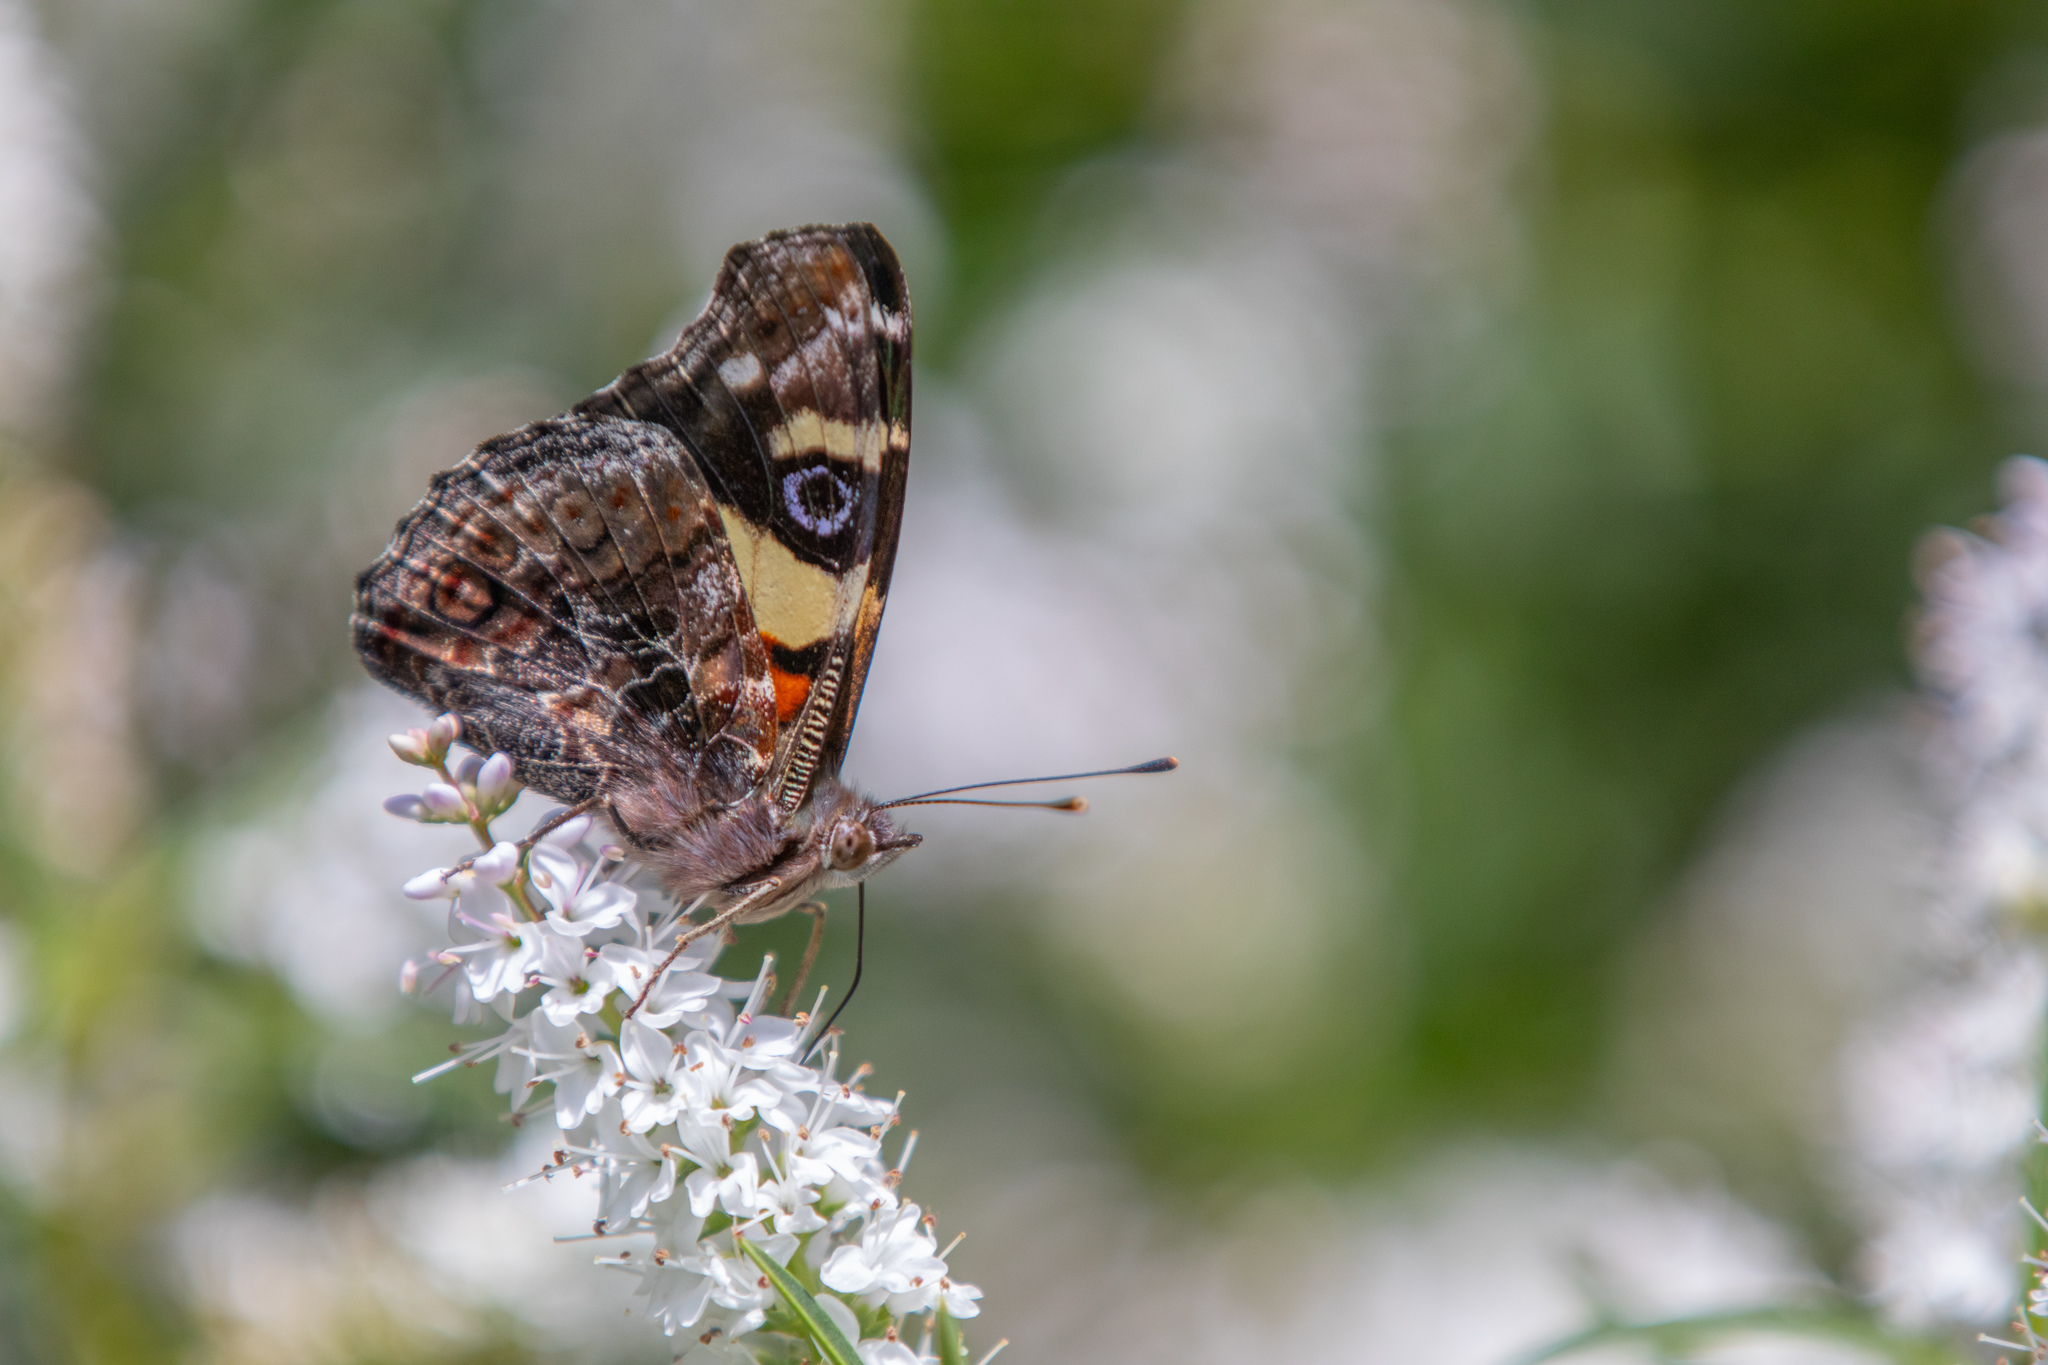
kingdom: Animalia
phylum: Arthropoda
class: Insecta
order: Lepidoptera
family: Nymphalidae
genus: Vanessa
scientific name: Vanessa itea
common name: Yellow admiral
